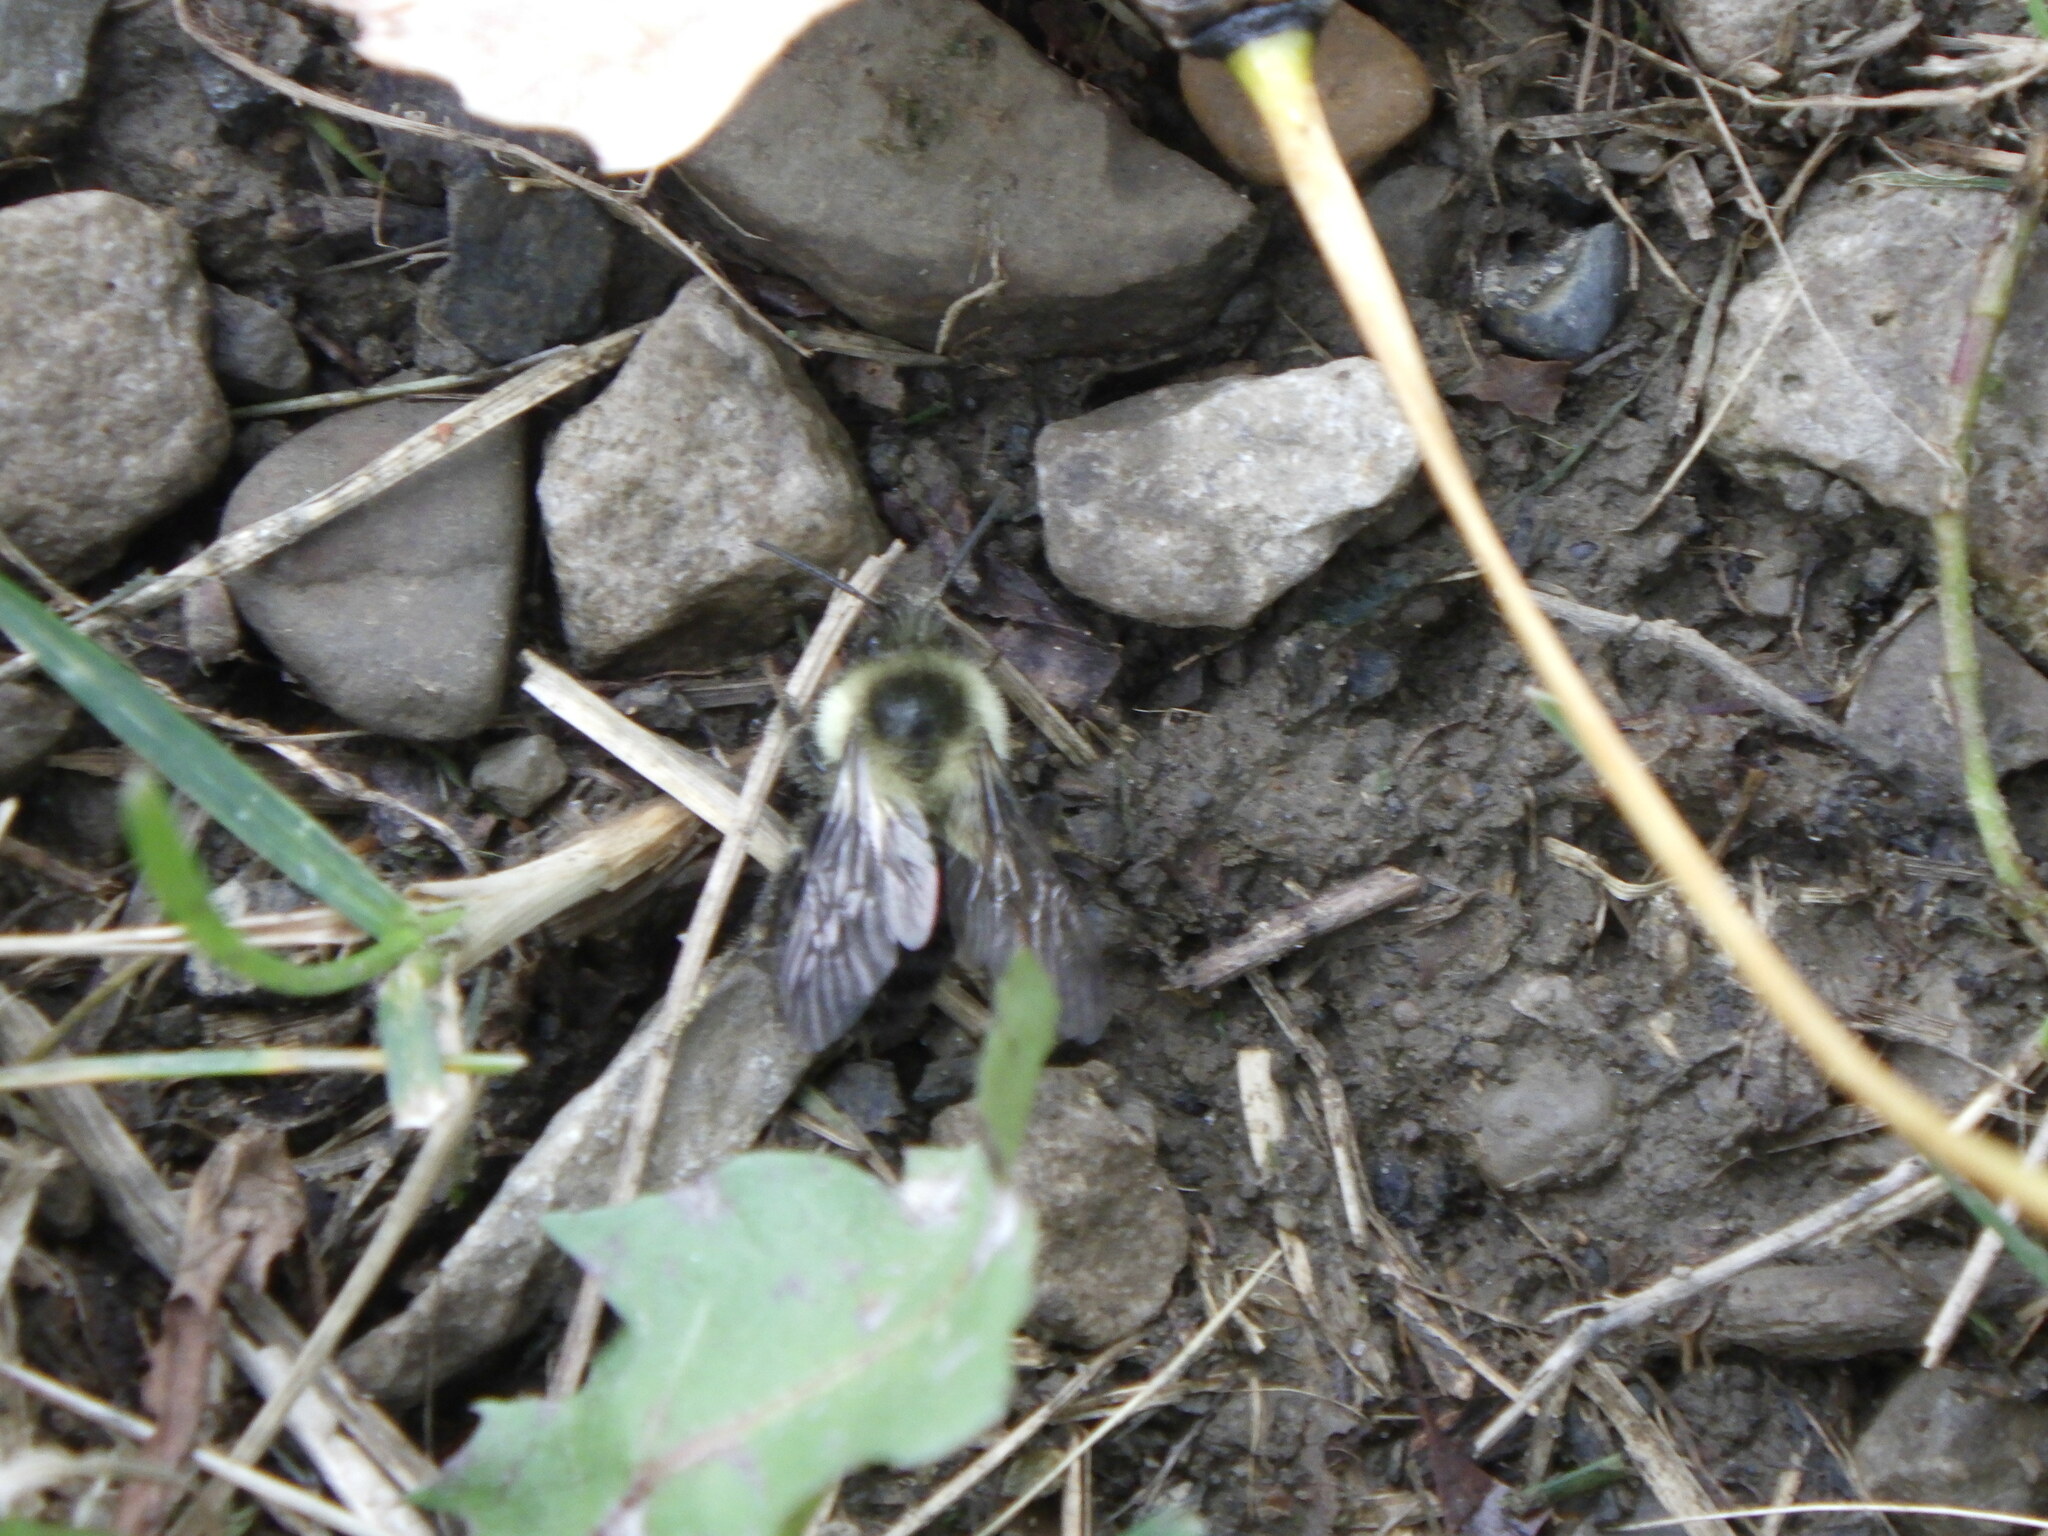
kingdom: Animalia
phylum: Arthropoda
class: Insecta
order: Hymenoptera
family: Apidae
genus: Bombus
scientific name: Bombus impatiens
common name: Common eastern bumble bee
